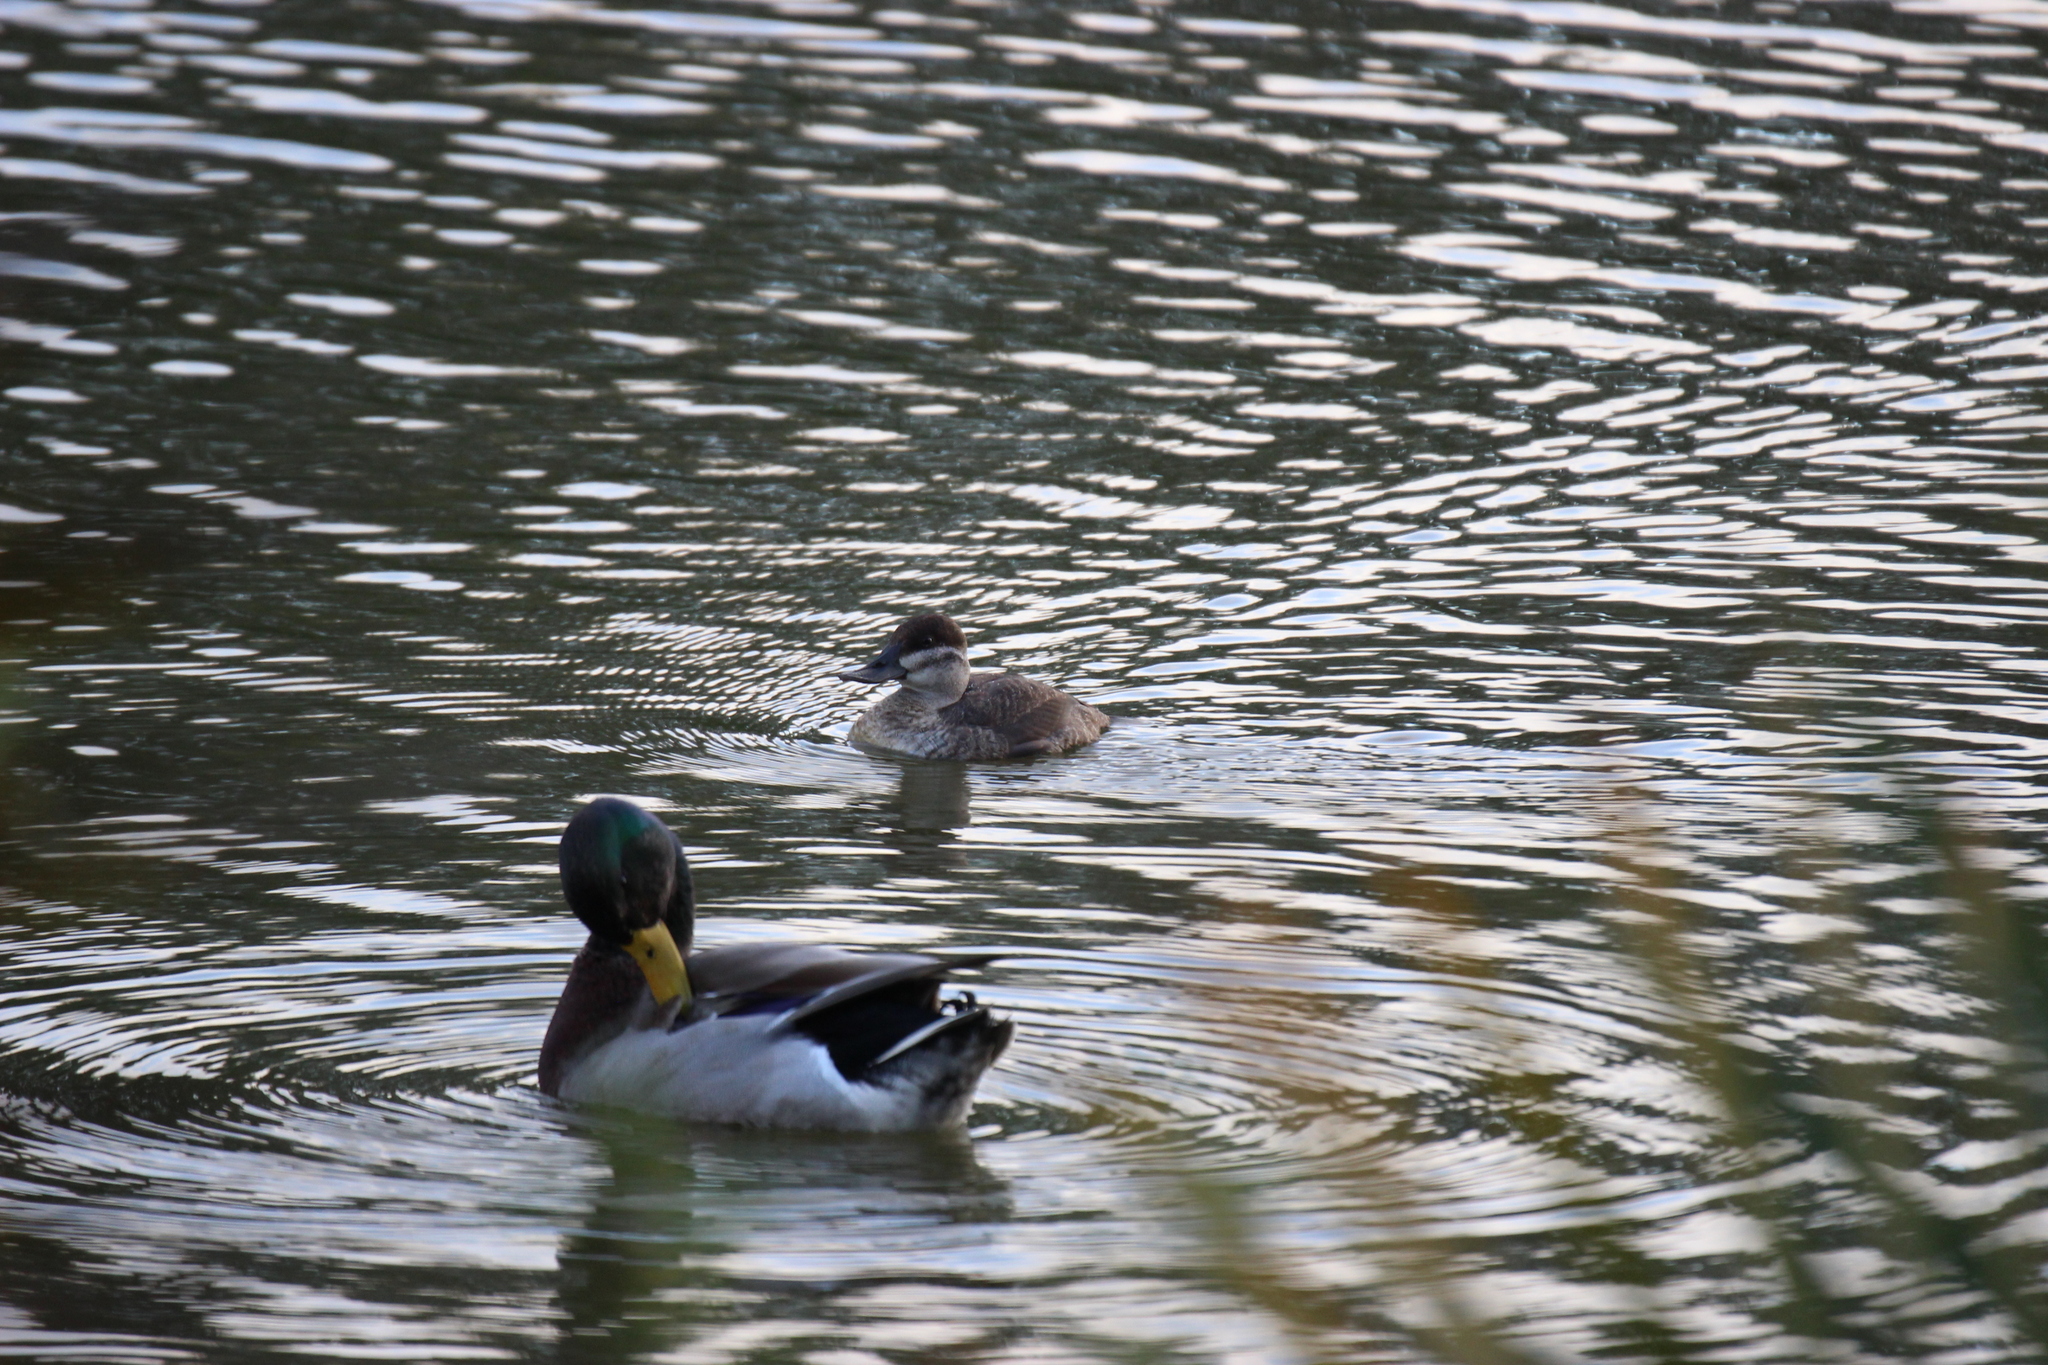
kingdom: Animalia
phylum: Chordata
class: Aves
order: Anseriformes
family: Anatidae
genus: Oxyura
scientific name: Oxyura jamaicensis
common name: Ruddy duck
